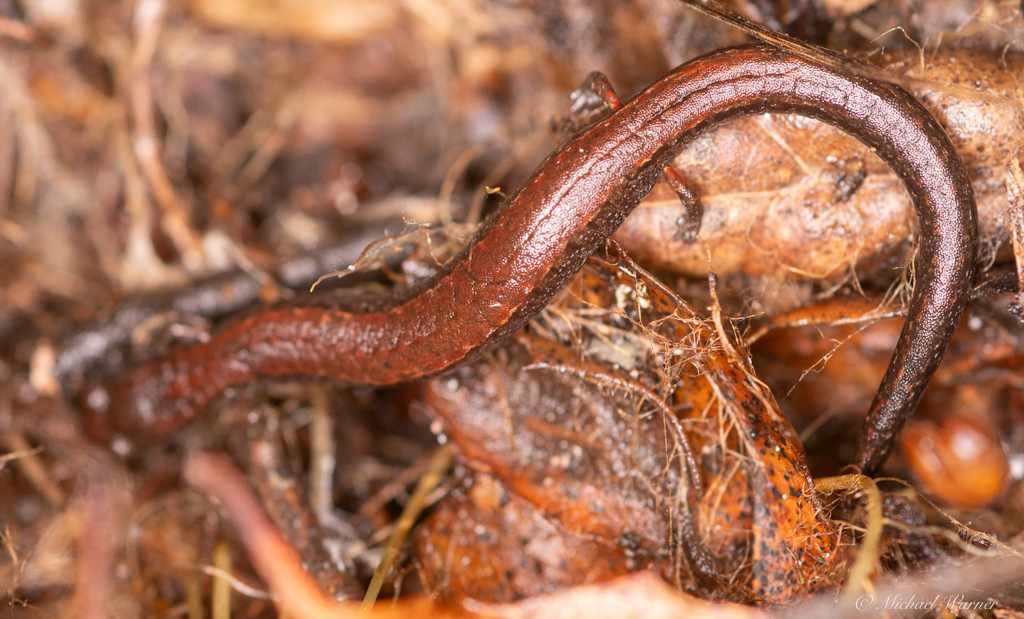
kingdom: Animalia
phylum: Chordata
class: Amphibia
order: Caudata
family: Plethodontidae
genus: Batrachoseps
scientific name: Batrachoseps attenuatus
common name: California slender salamander
